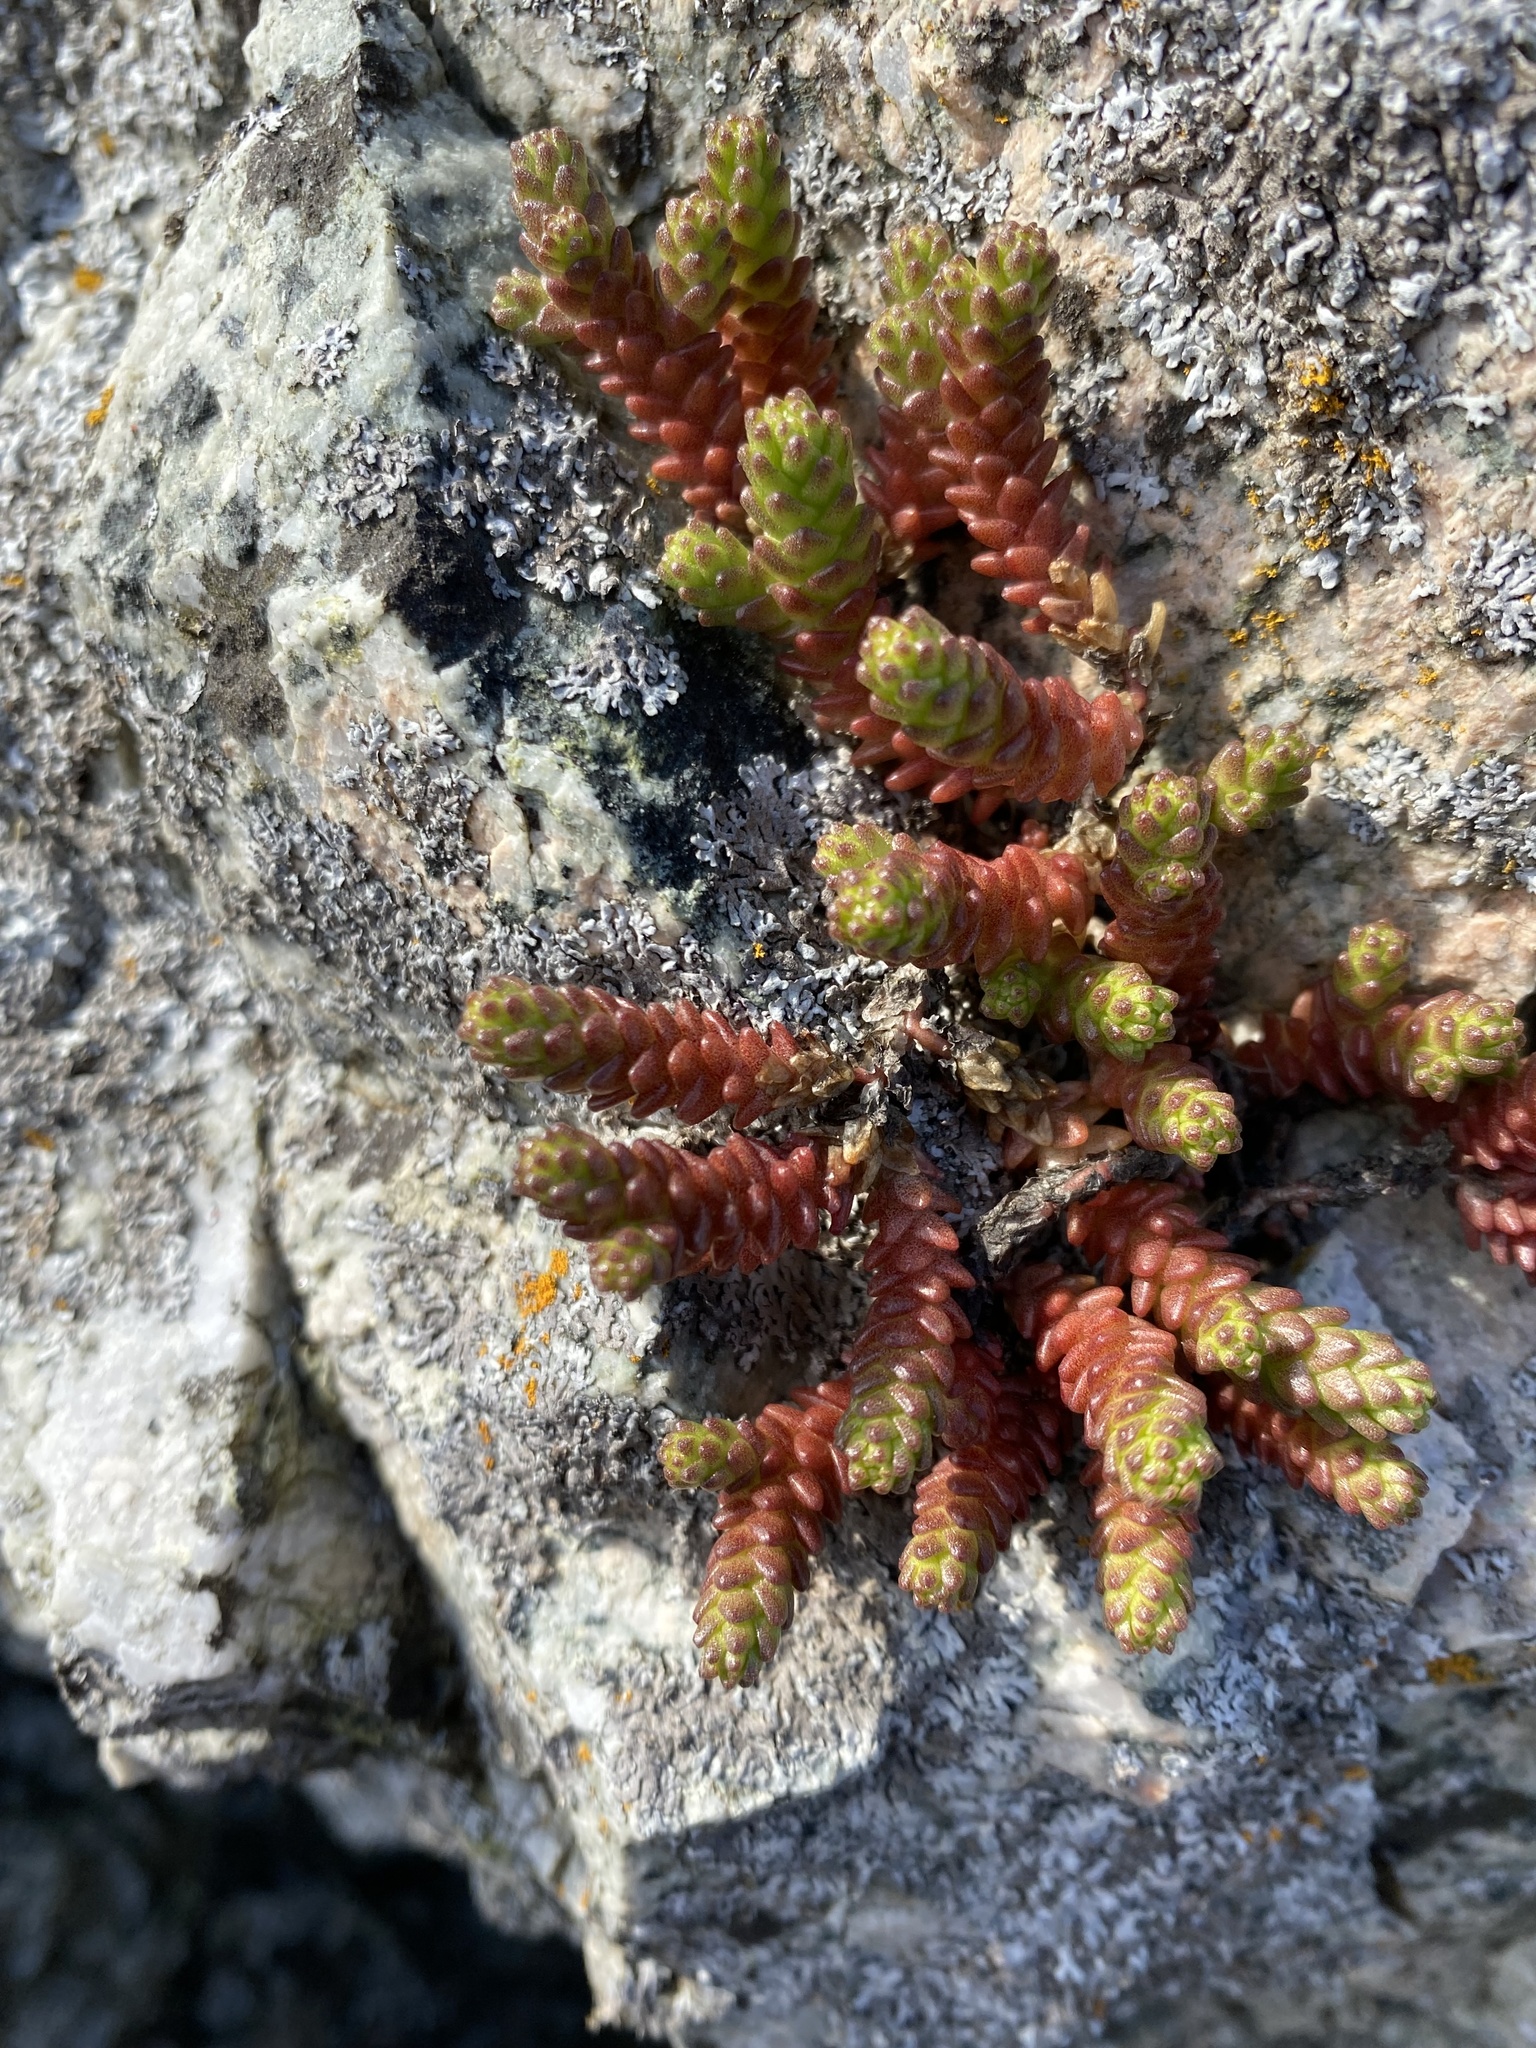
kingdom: Plantae
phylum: Tracheophyta
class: Magnoliopsida
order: Saxifragales
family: Crassulaceae
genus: Sedum
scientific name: Sedum acre
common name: Biting stonecrop
